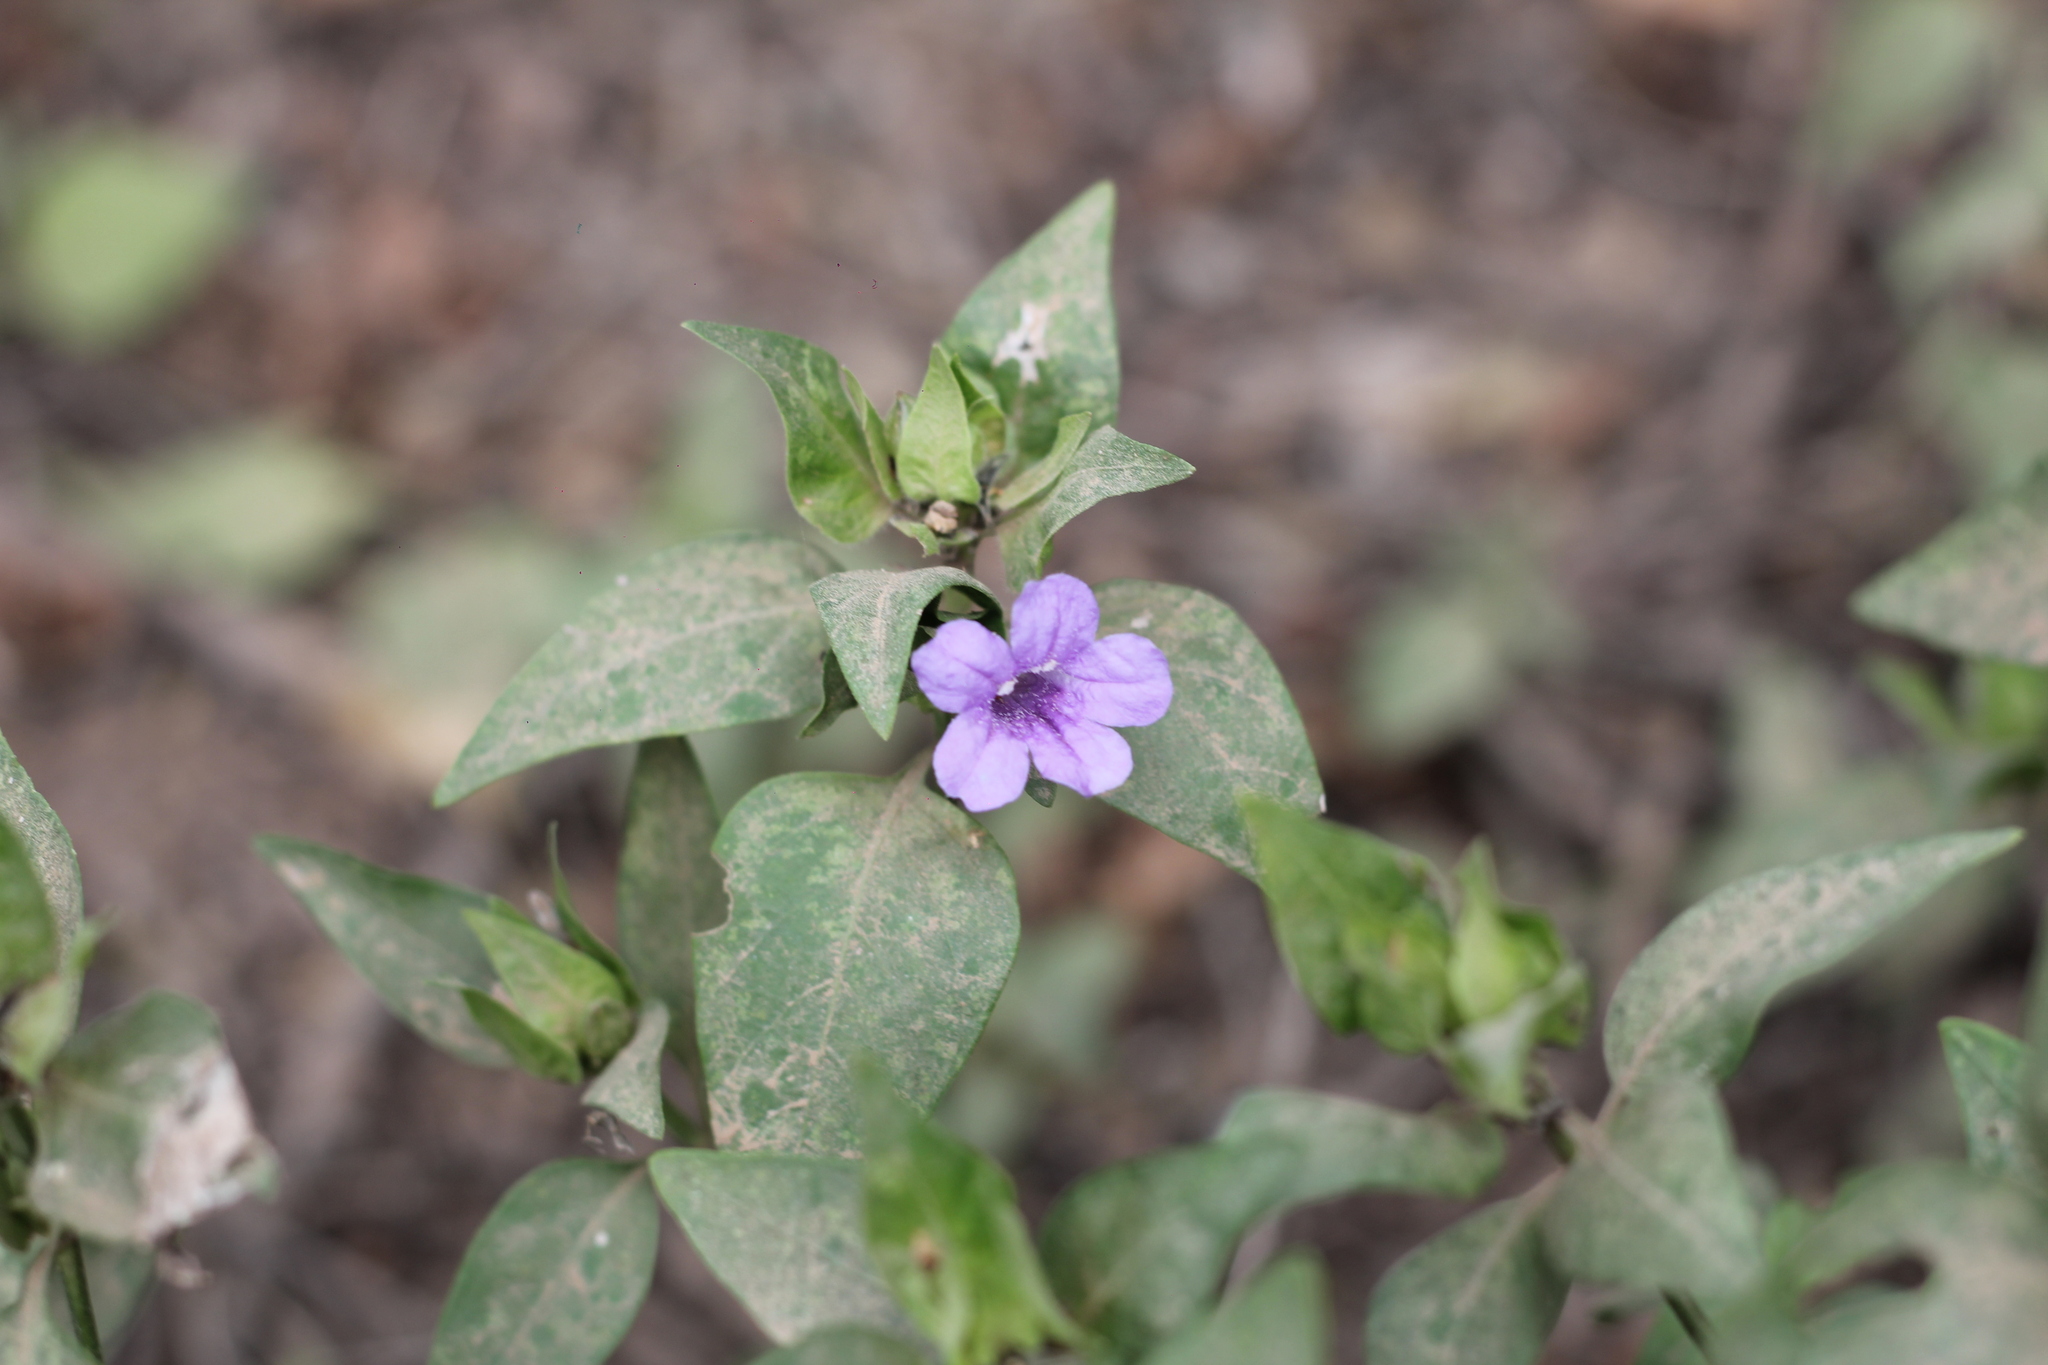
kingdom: Plantae
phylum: Tracheophyta
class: Magnoliopsida
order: Lamiales
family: Acanthaceae
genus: Ruellia
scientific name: Ruellia erythropus
